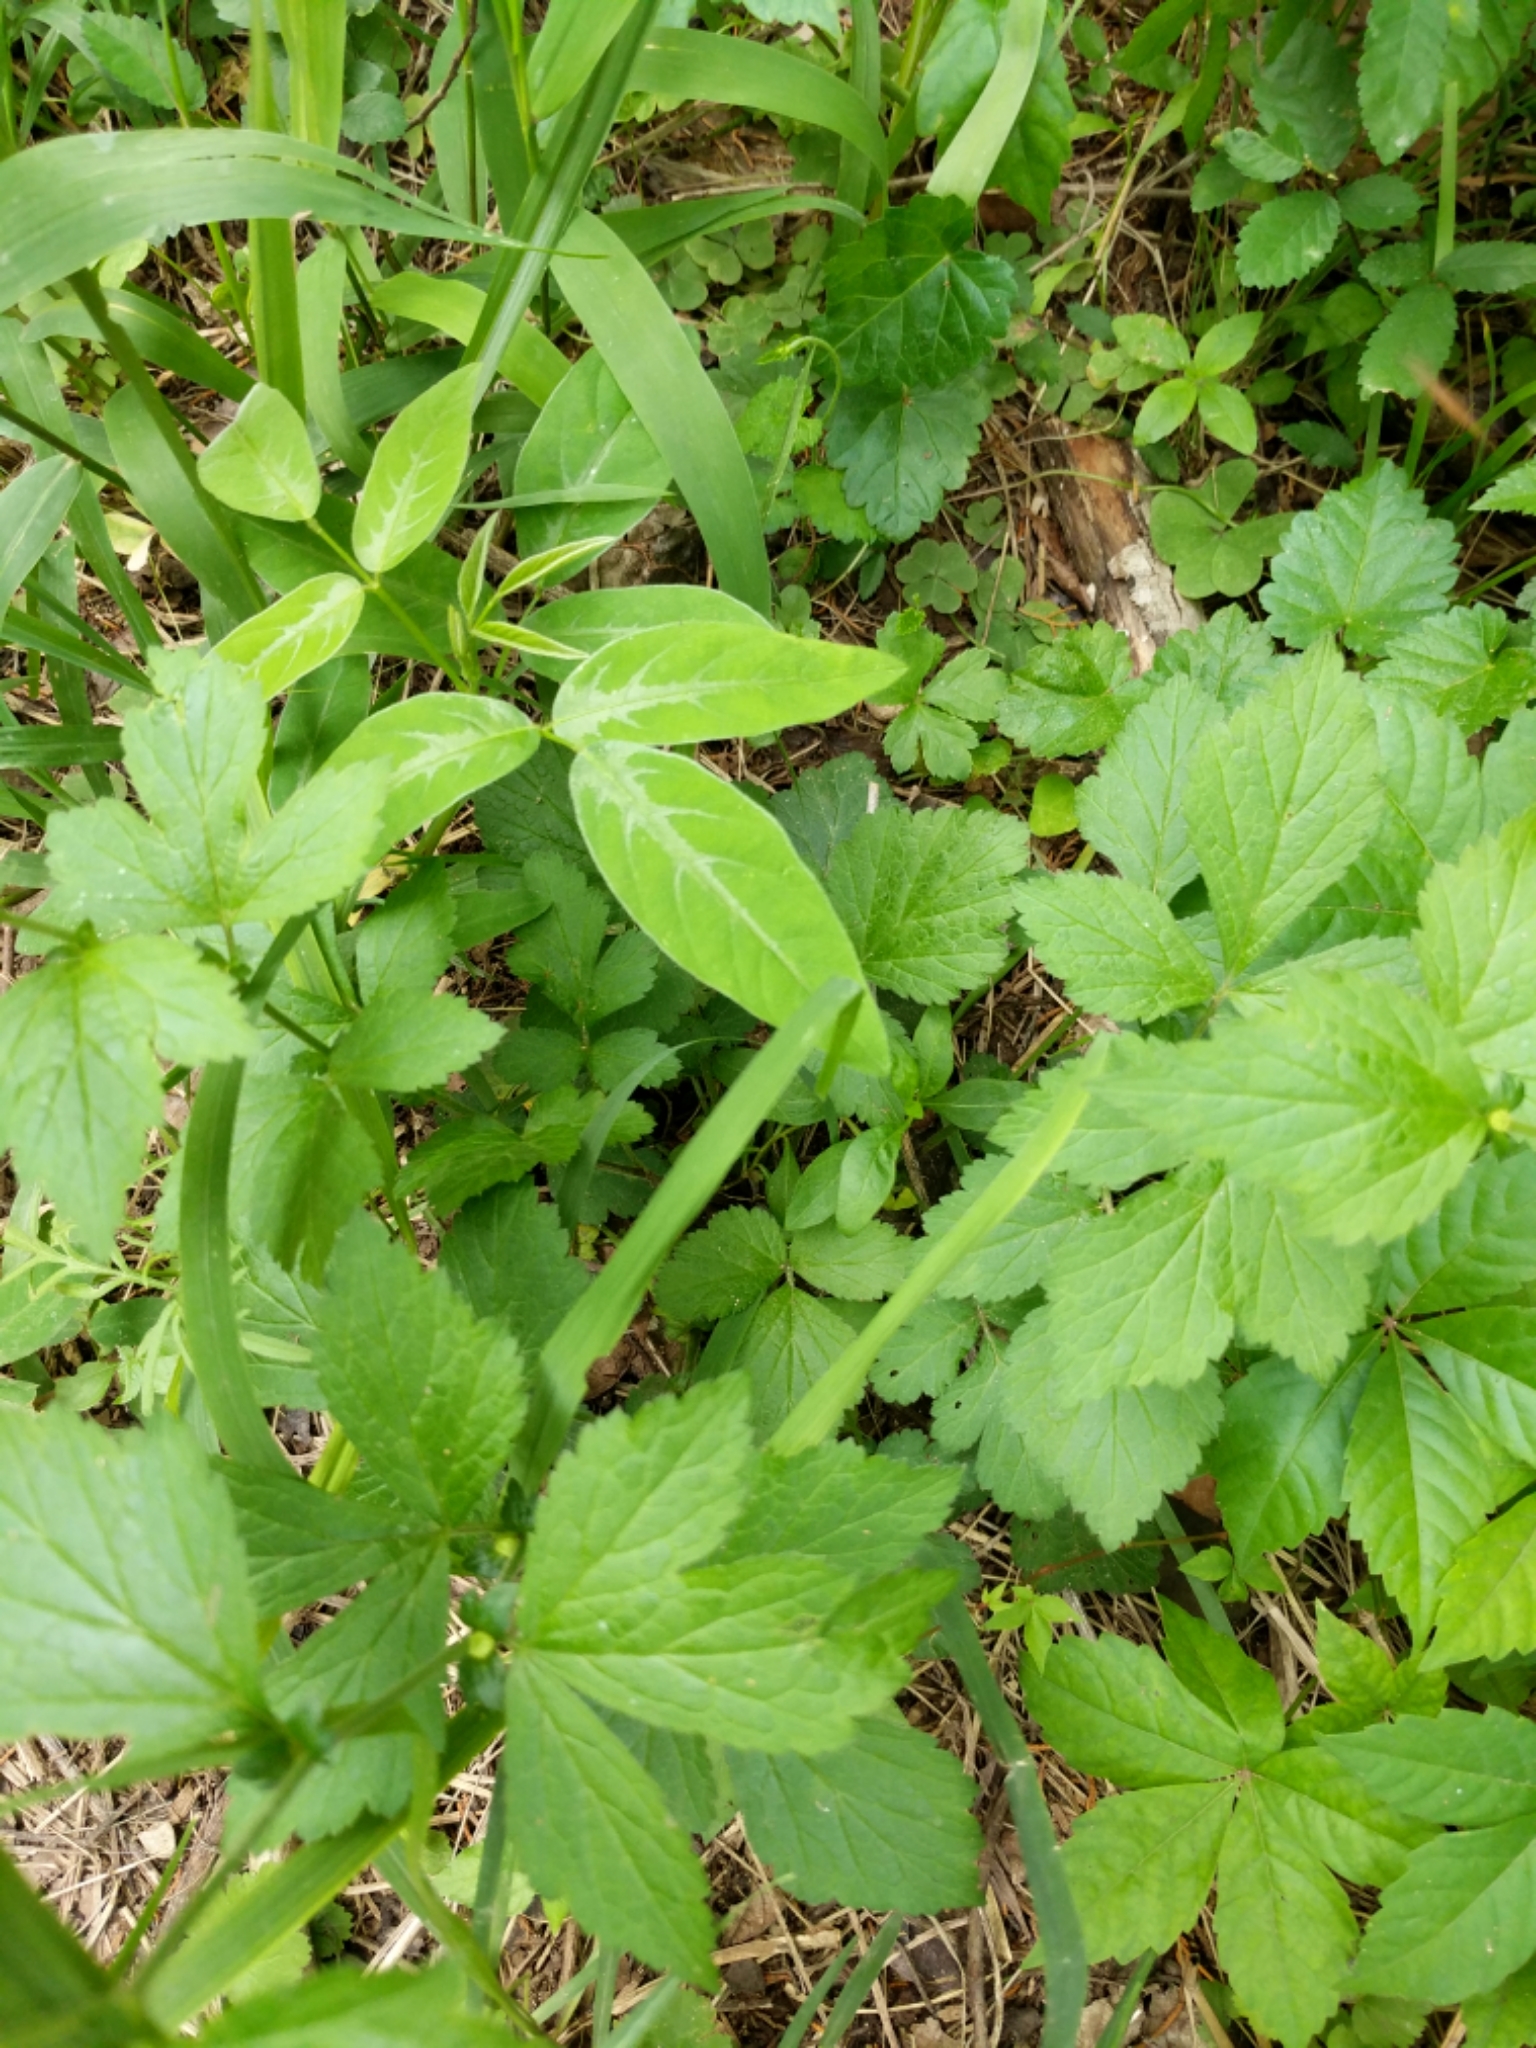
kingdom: Plantae
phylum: Tracheophyta
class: Magnoliopsida
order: Rosales
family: Rosaceae
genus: Geum
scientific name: Geum canadense
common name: White avens
